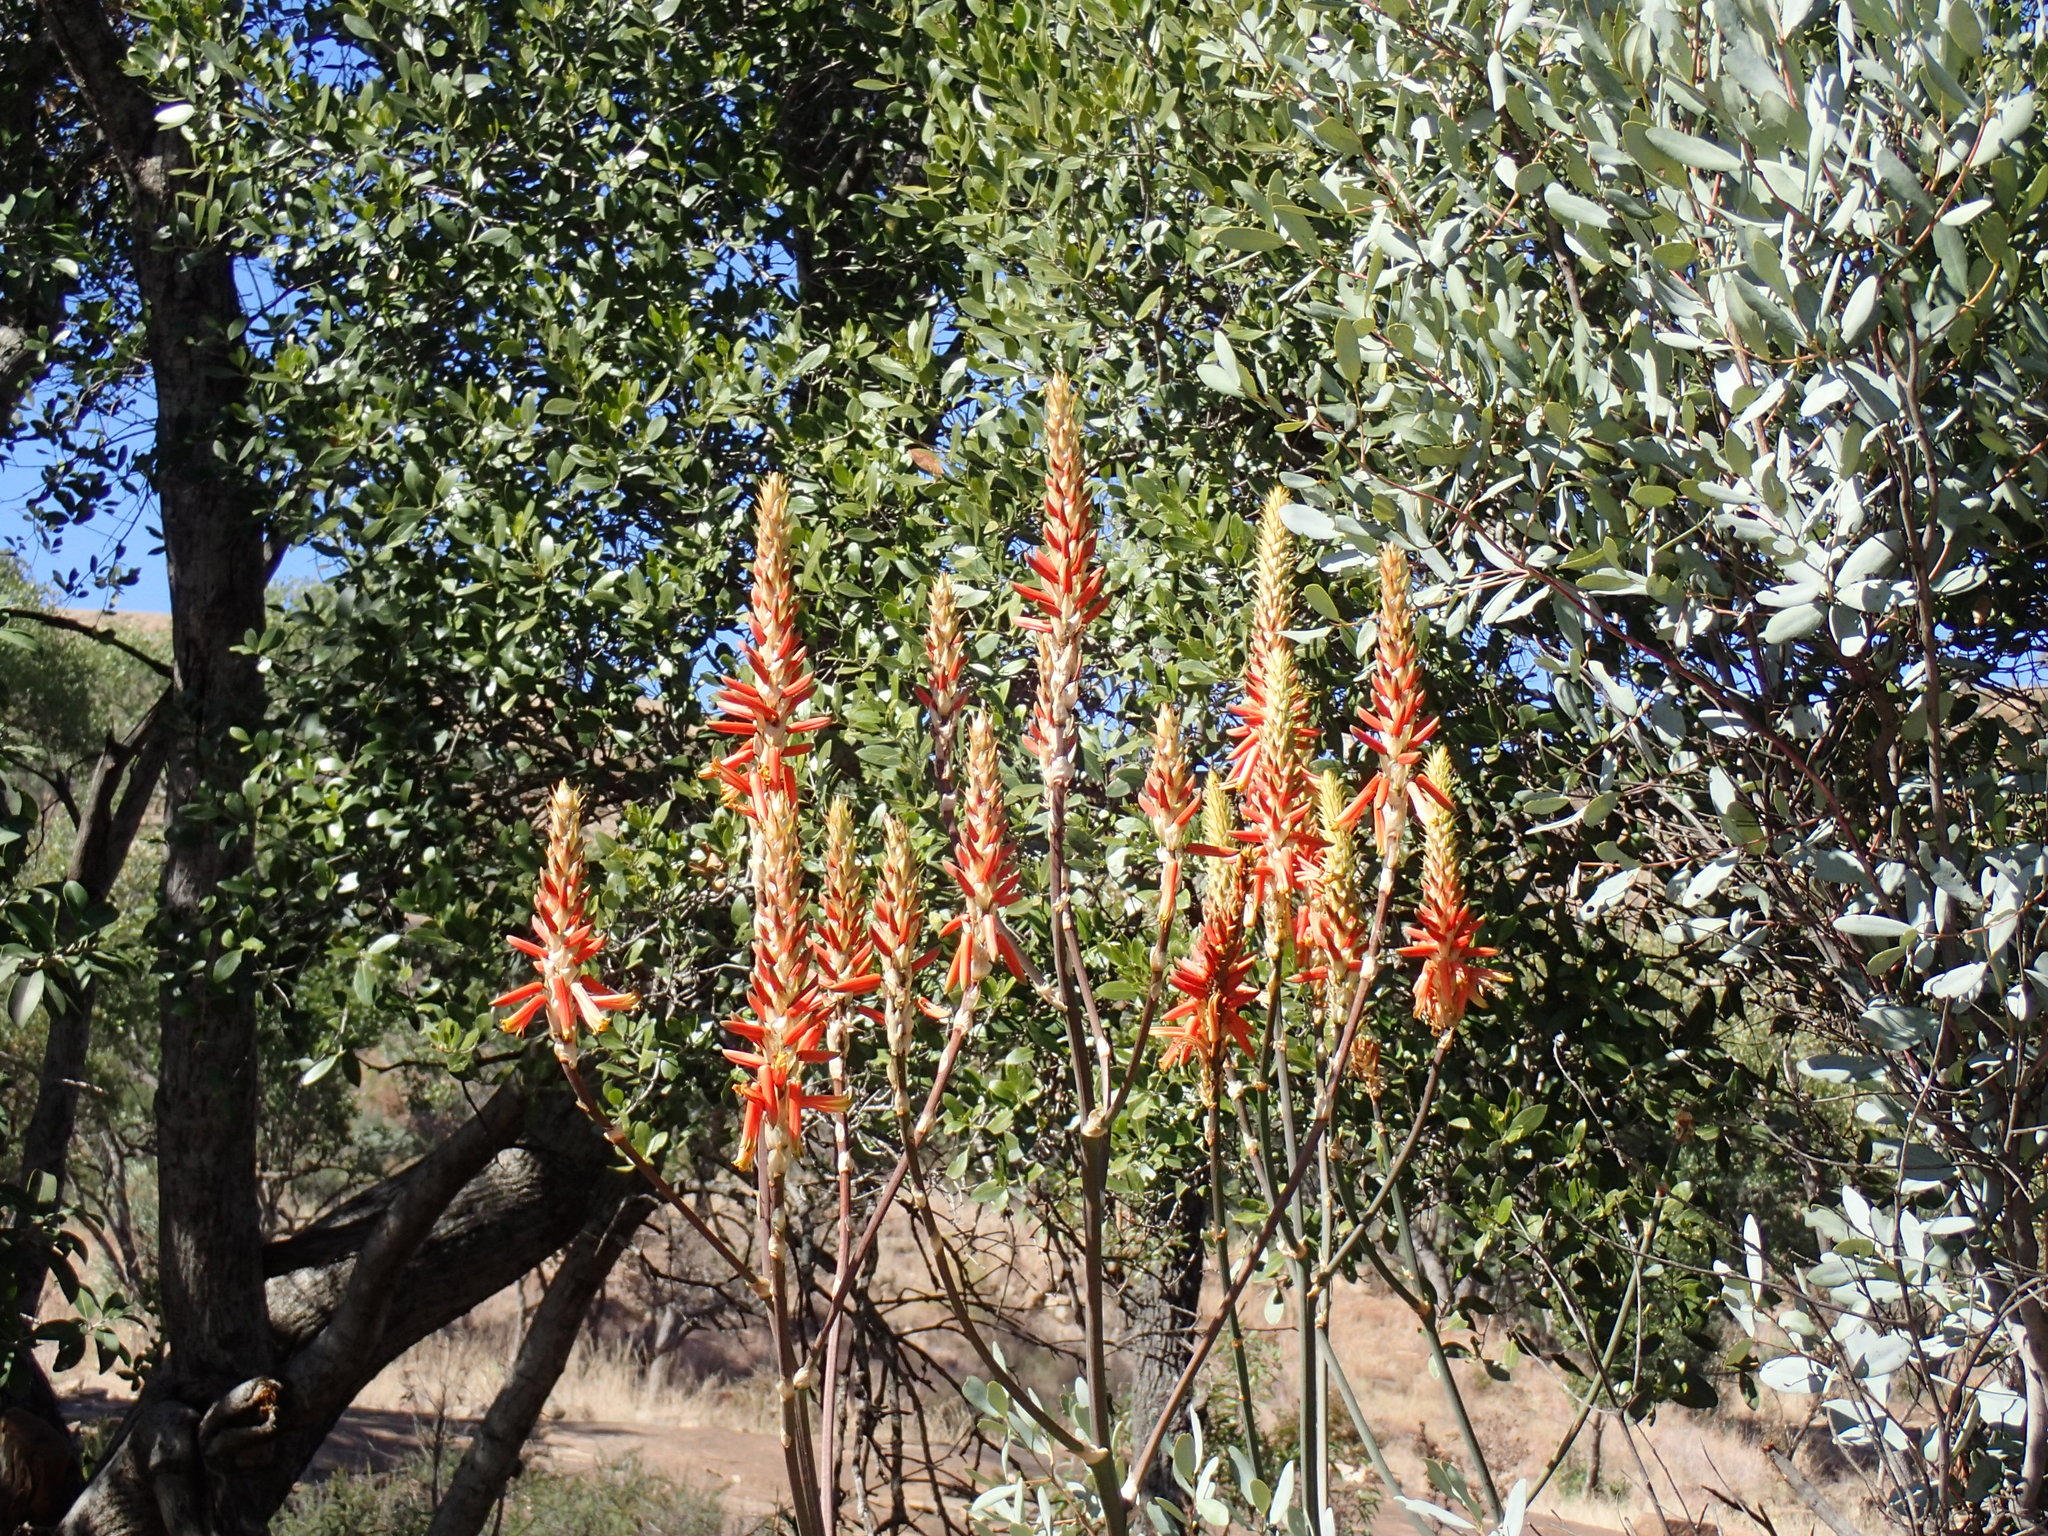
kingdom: Plantae
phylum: Tracheophyta
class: Liliopsida
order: Asparagales
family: Asphodelaceae
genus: Aloe
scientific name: Aloe cryptopoda
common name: Dr. kirk's aloe
